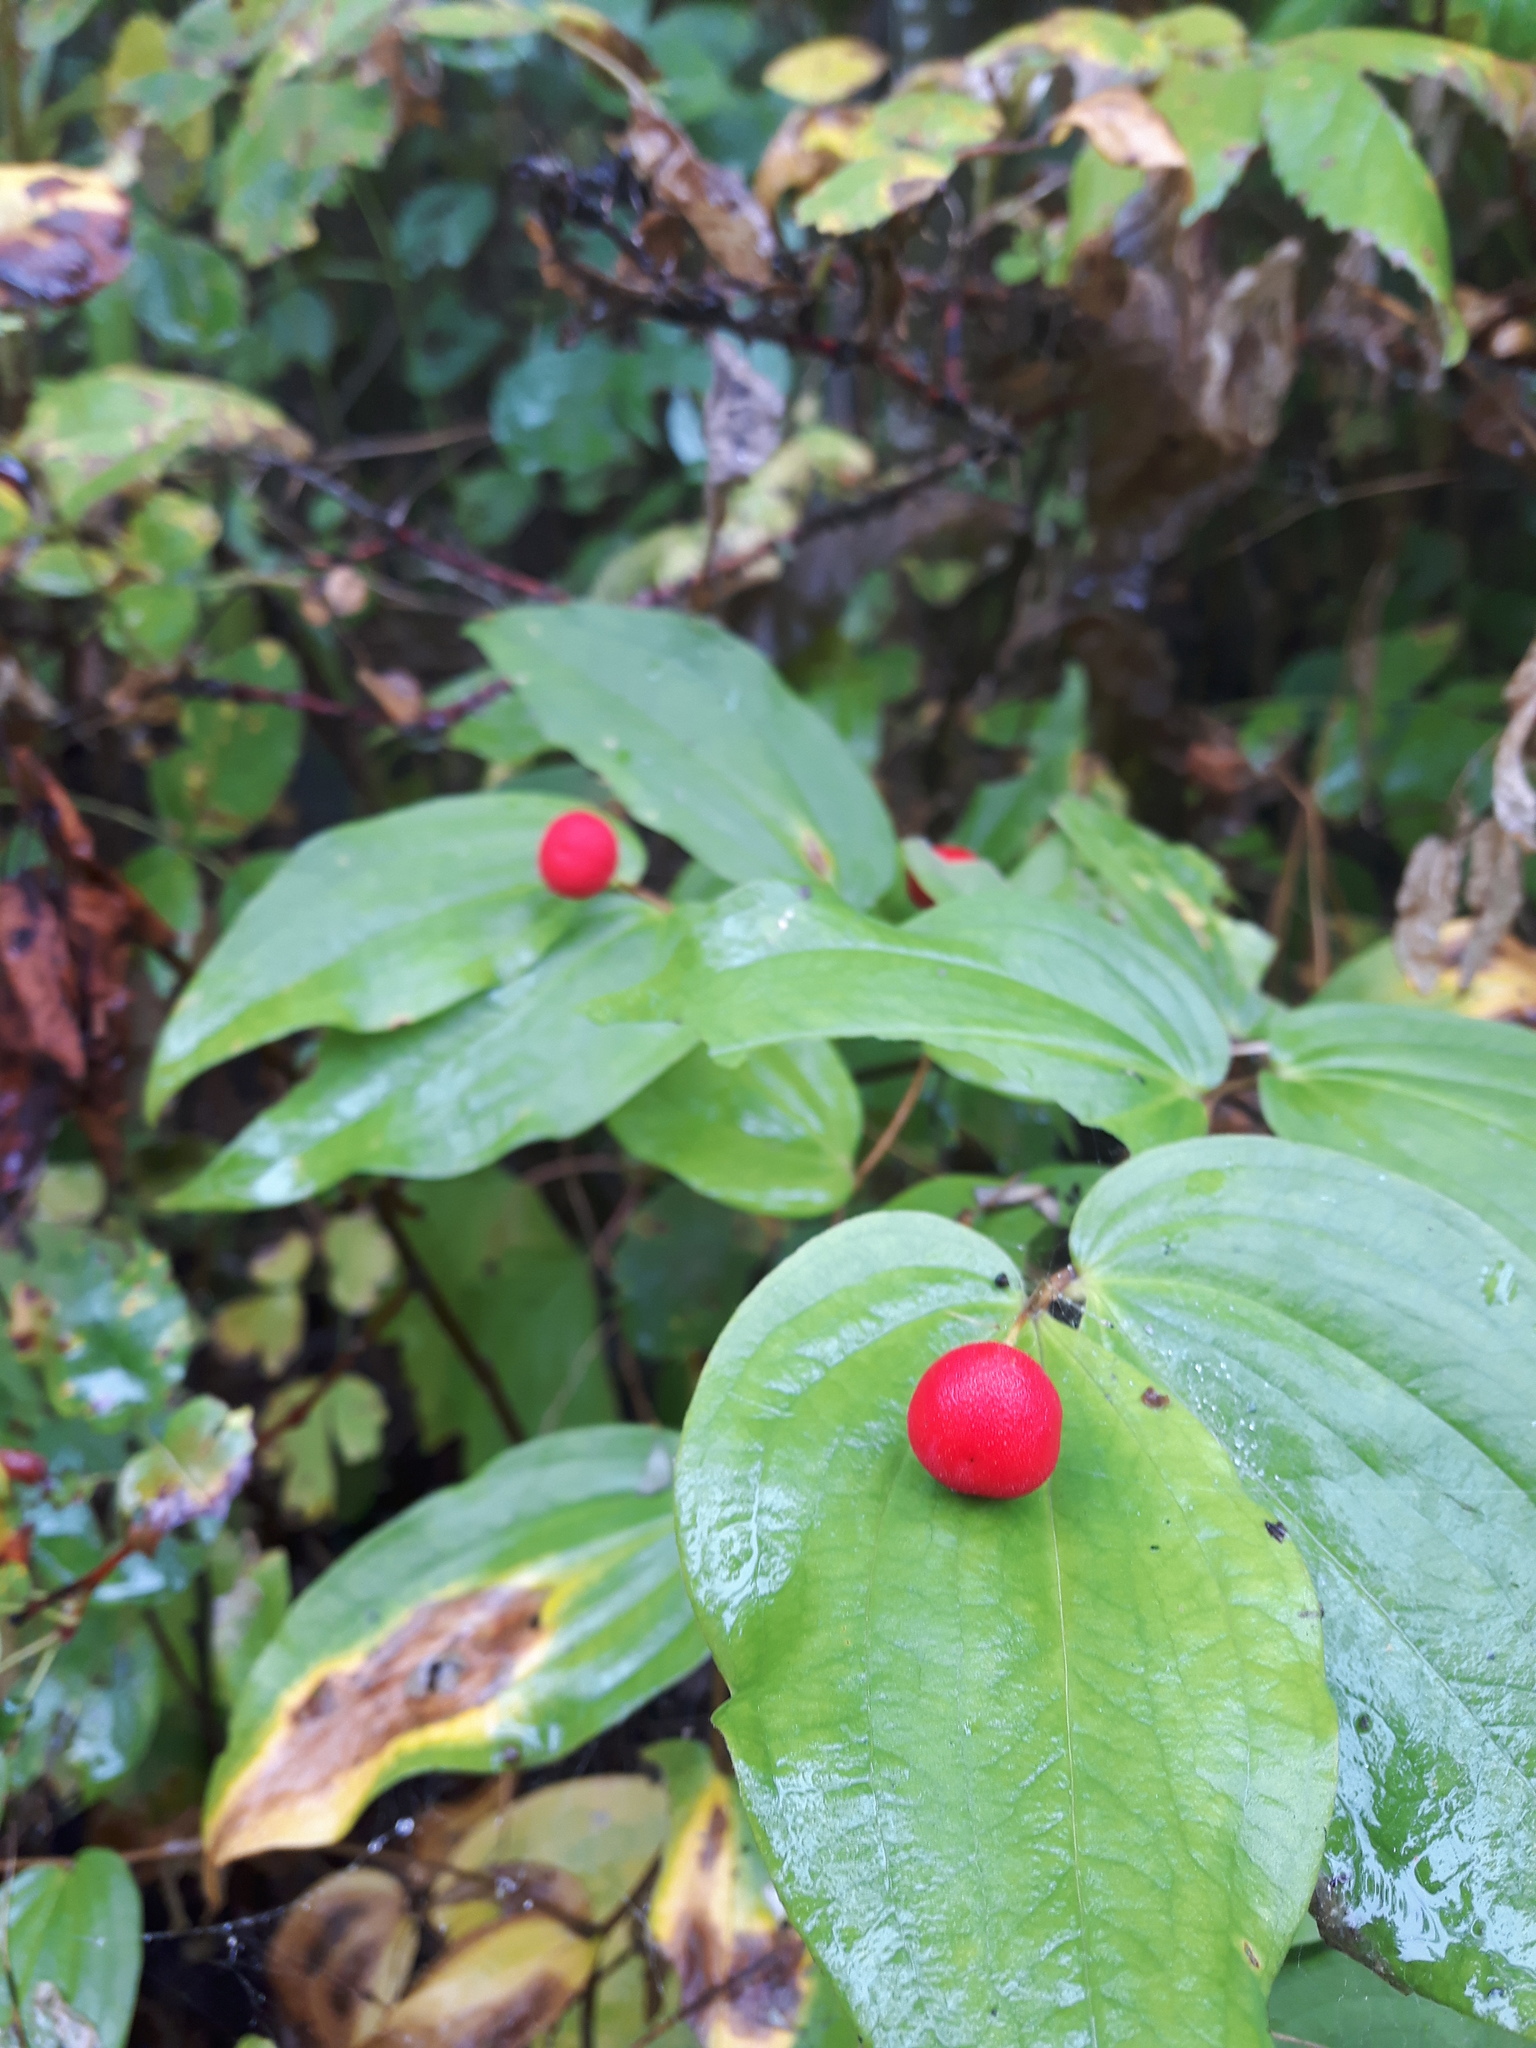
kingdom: Plantae
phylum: Tracheophyta
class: Liliopsida
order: Liliales
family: Liliaceae
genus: Prosartes
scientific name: Prosartes trachycarpa
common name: Rough-fruit fairy-bells
